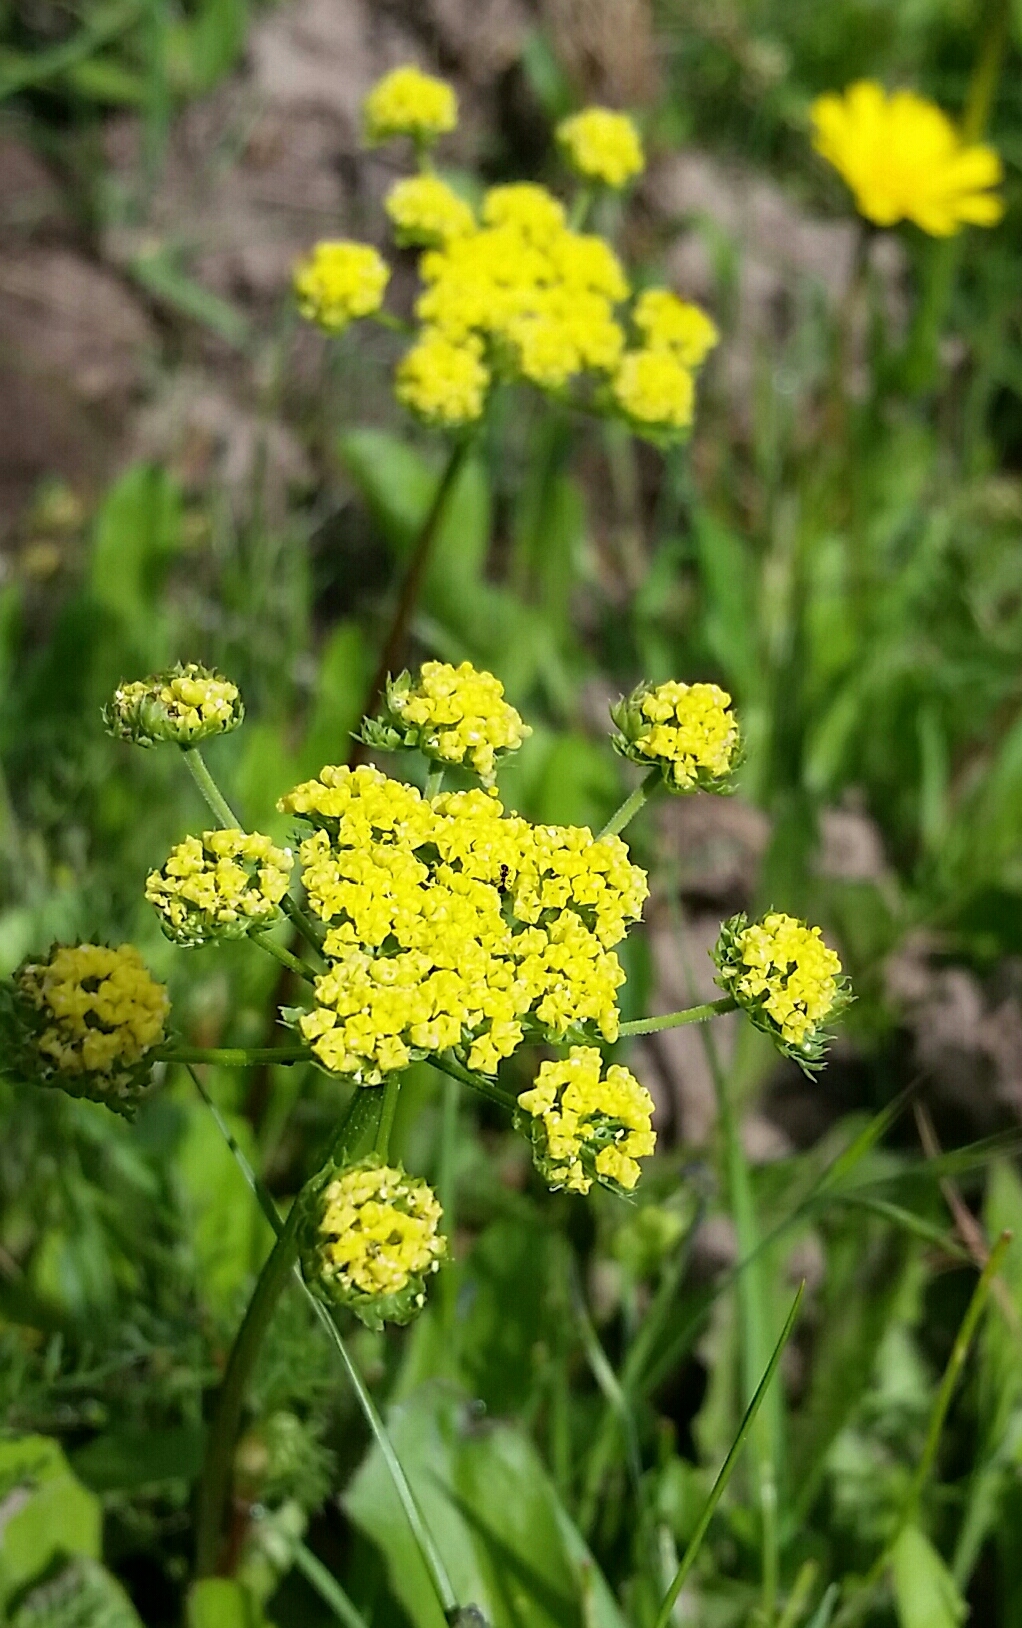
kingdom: Plantae
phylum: Tracheophyta
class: Magnoliopsida
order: Apiales
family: Apiaceae
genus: Lomatium
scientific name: Lomatium utriculatum
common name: Fine-leaf desert-parsley
